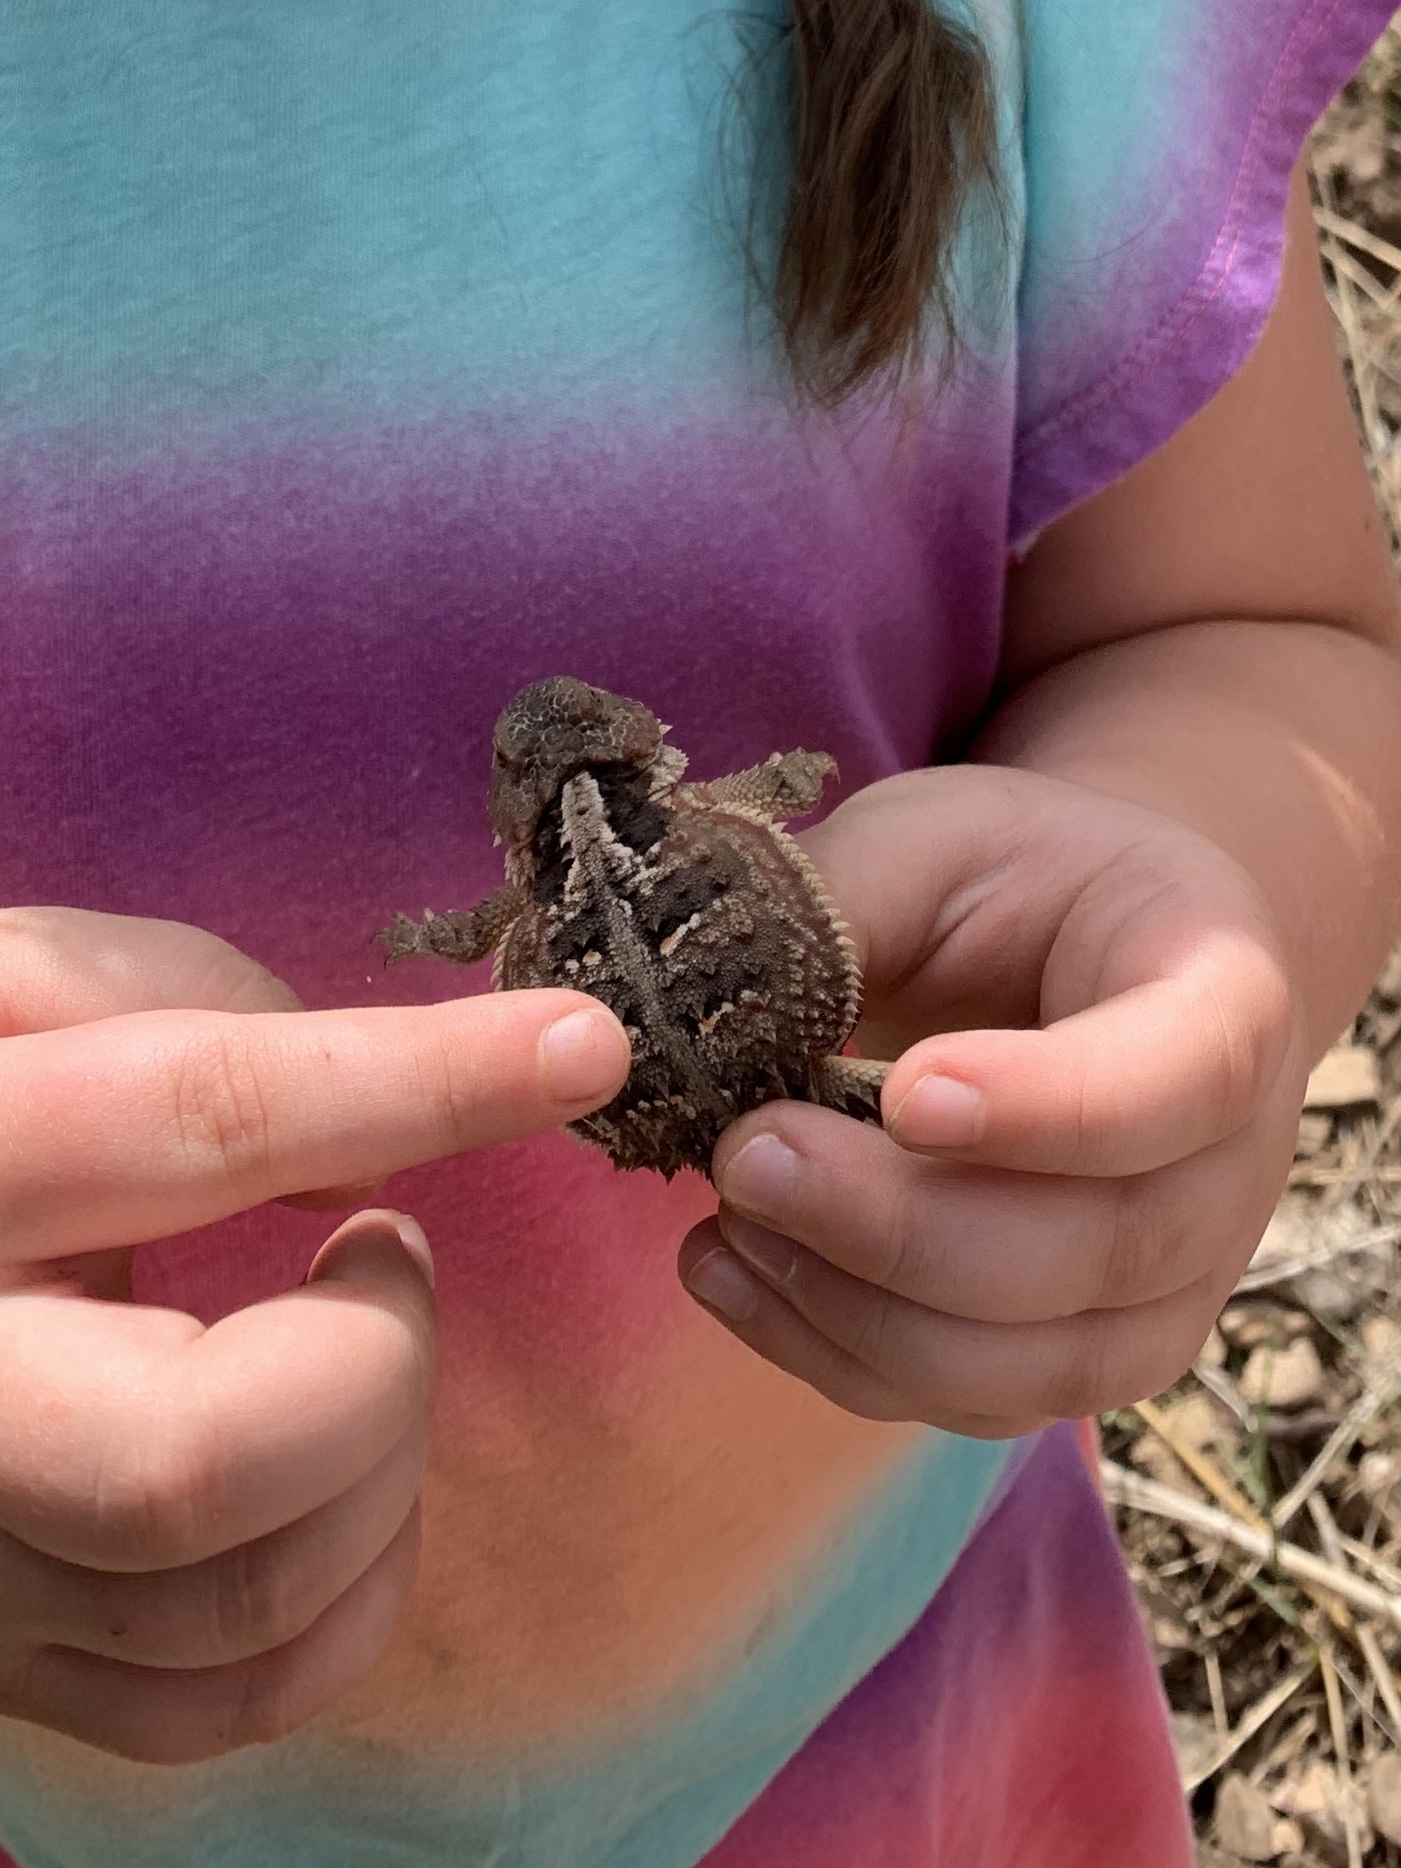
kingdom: Animalia
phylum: Chordata
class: Squamata
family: Phrynosomatidae
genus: Phrynosoma
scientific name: Phrynosoma hernandesi
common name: Greater short-horned lizard
